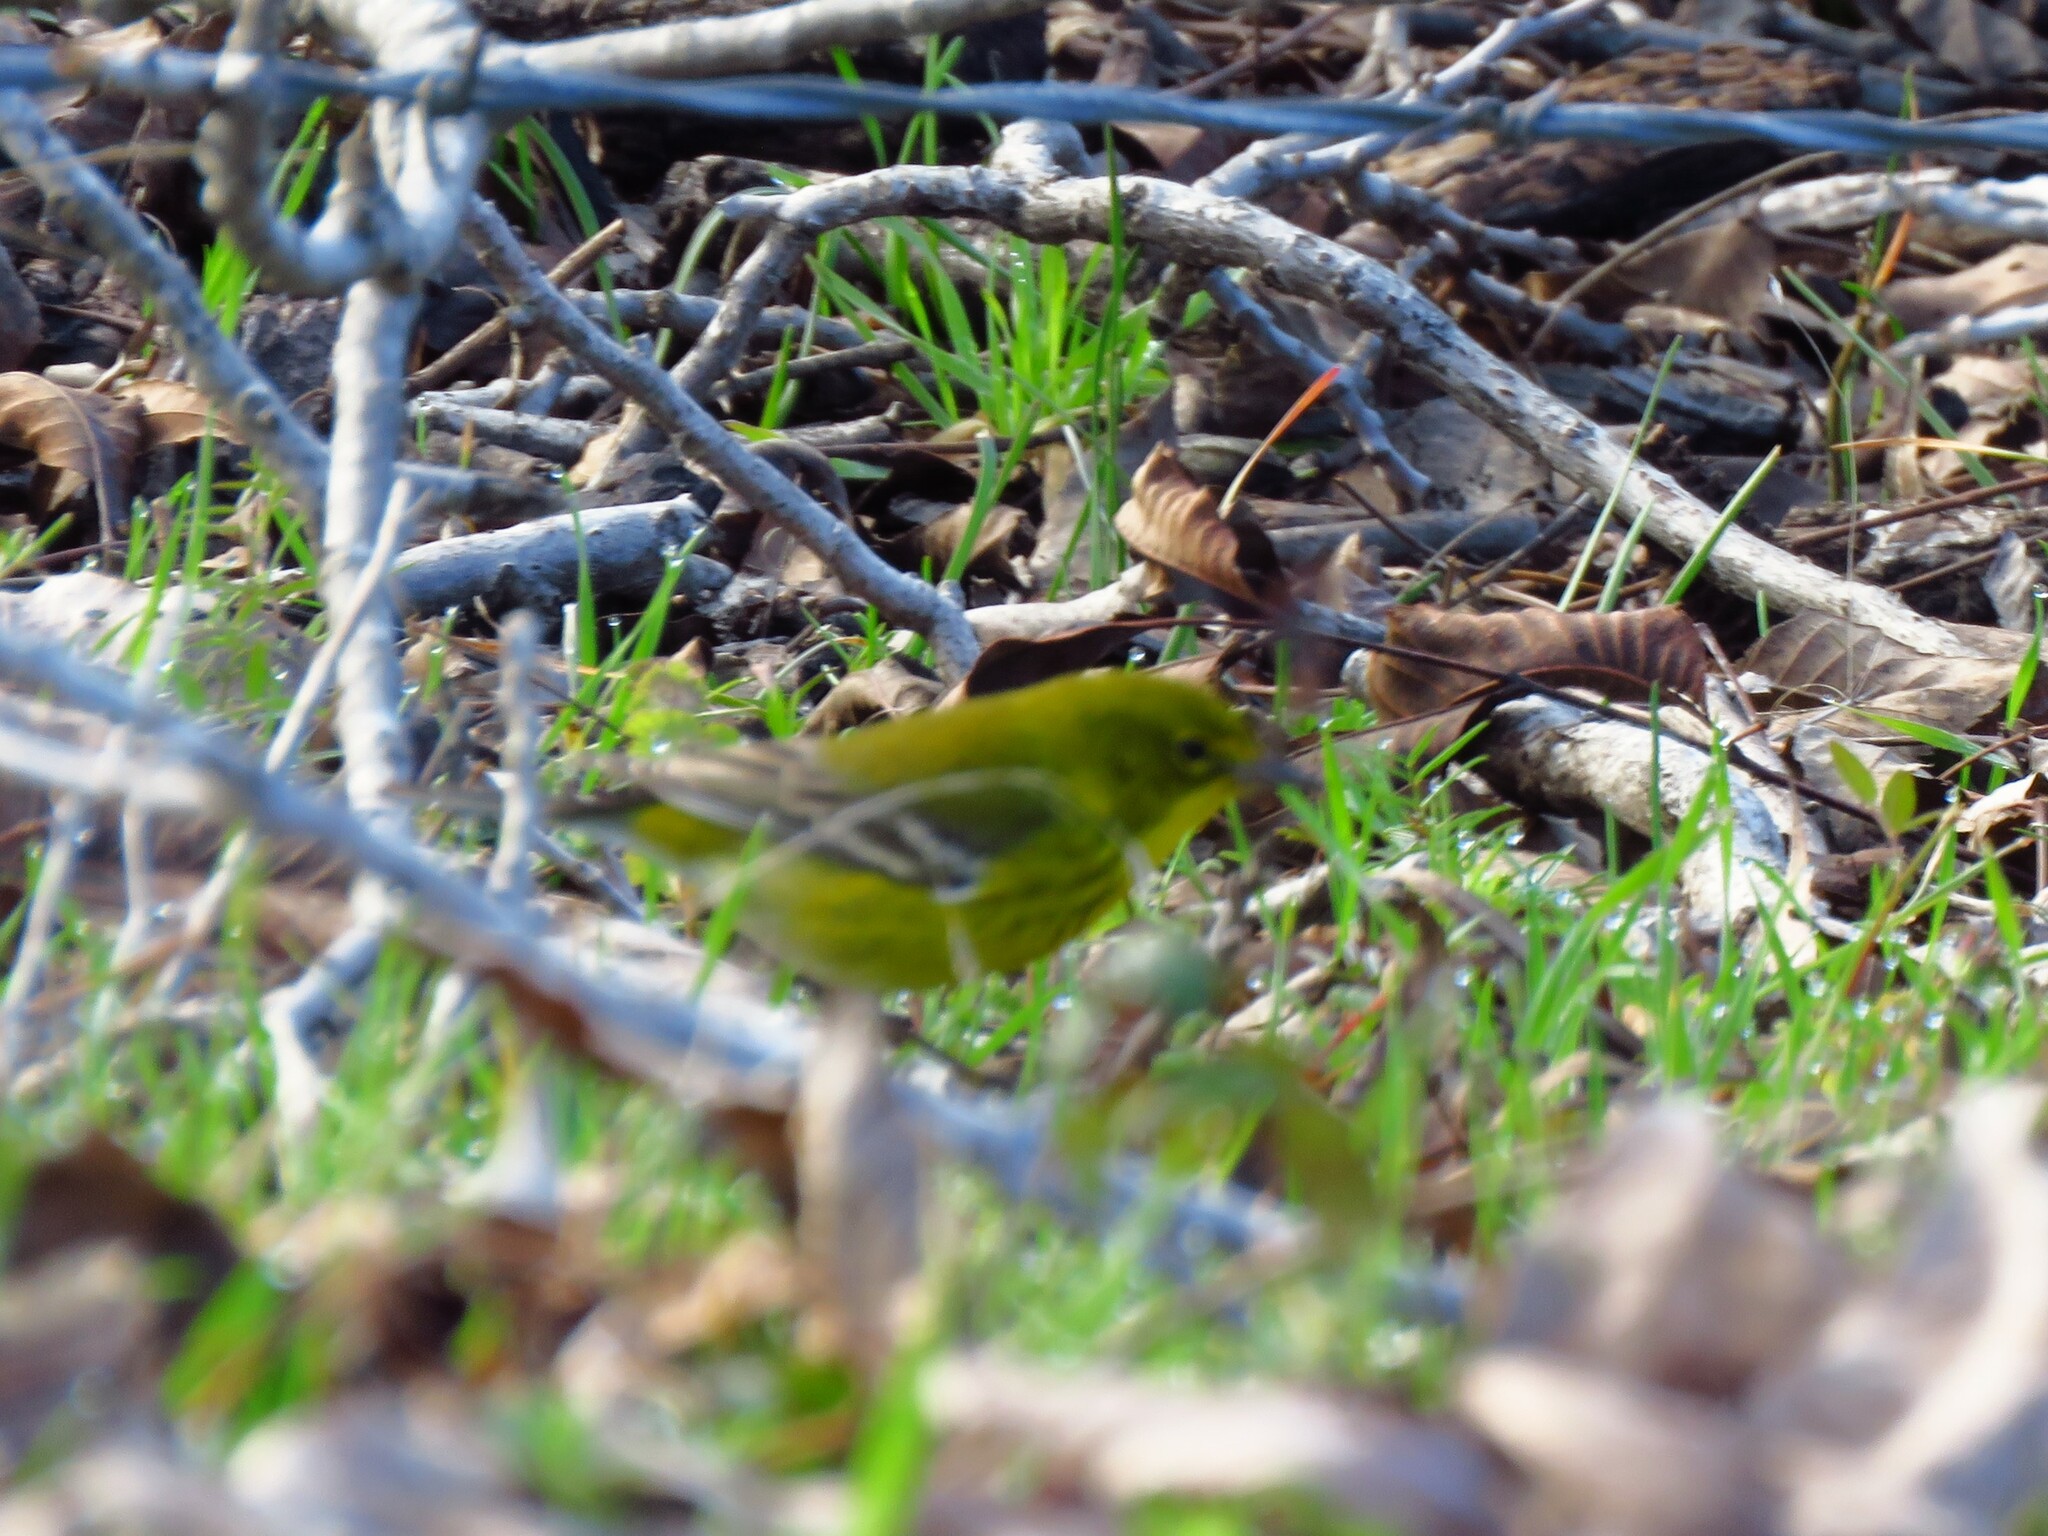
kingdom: Animalia
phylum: Chordata
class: Aves
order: Passeriformes
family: Parulidae
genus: Setophaga
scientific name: Setophaga pinus
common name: Pine warbler
